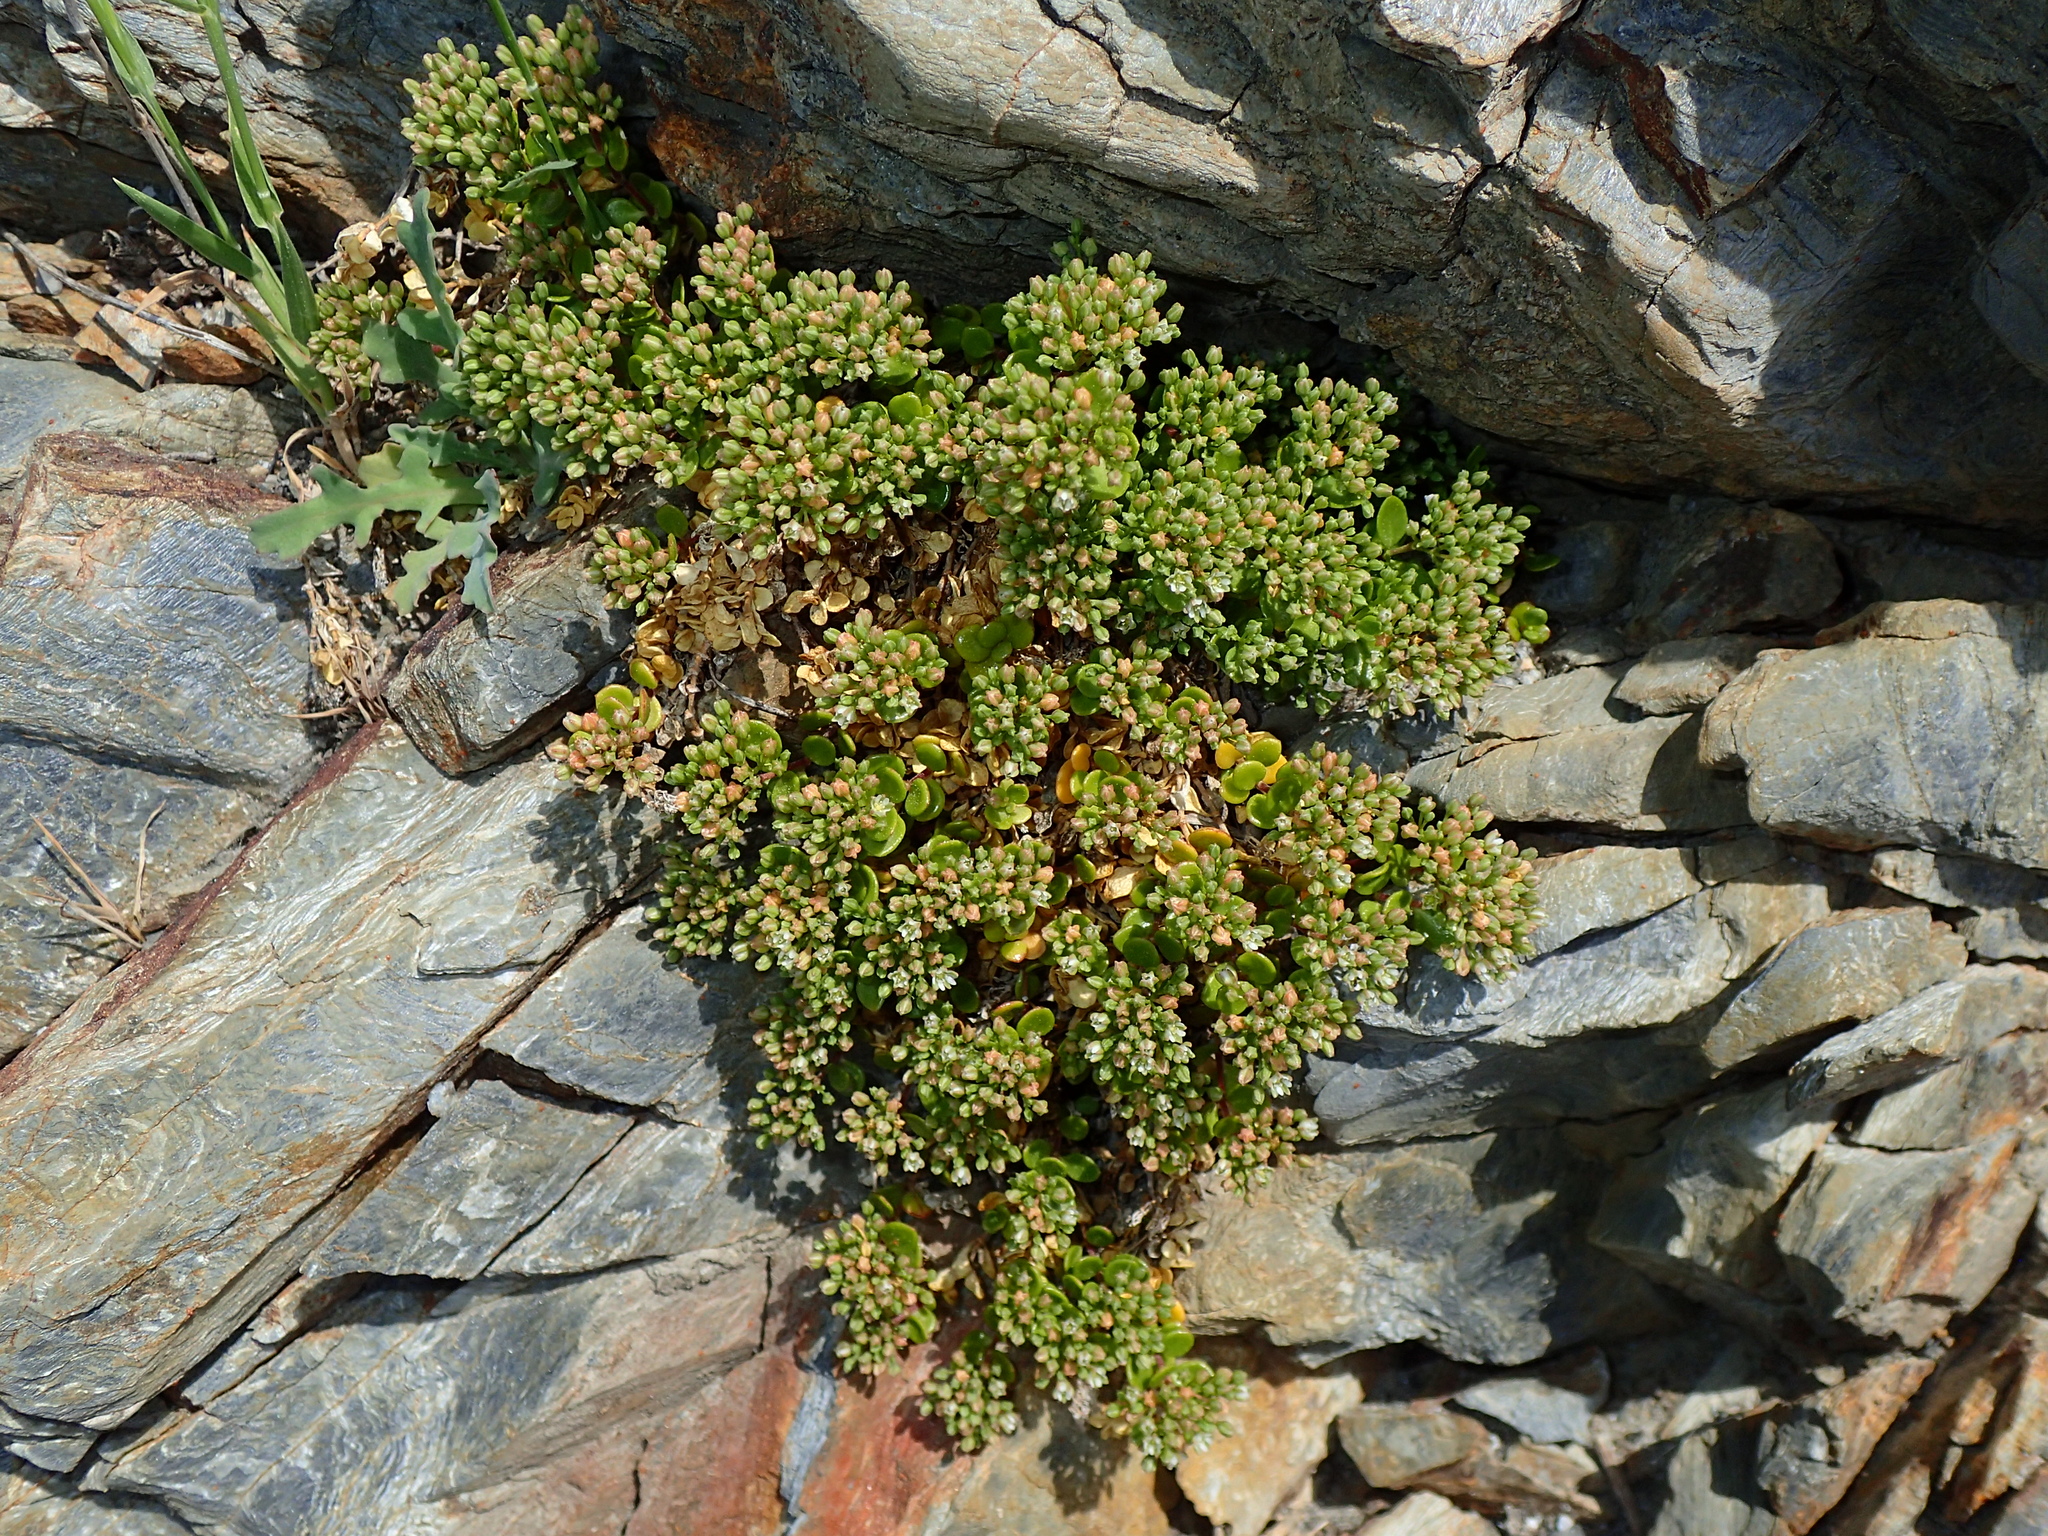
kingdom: Plantae
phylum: Tracheophyta
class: Magnoliopsida
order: Caryophyllales
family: Caryophyllaceae
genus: Polycarpon
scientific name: Polycarpon polycarpoides
